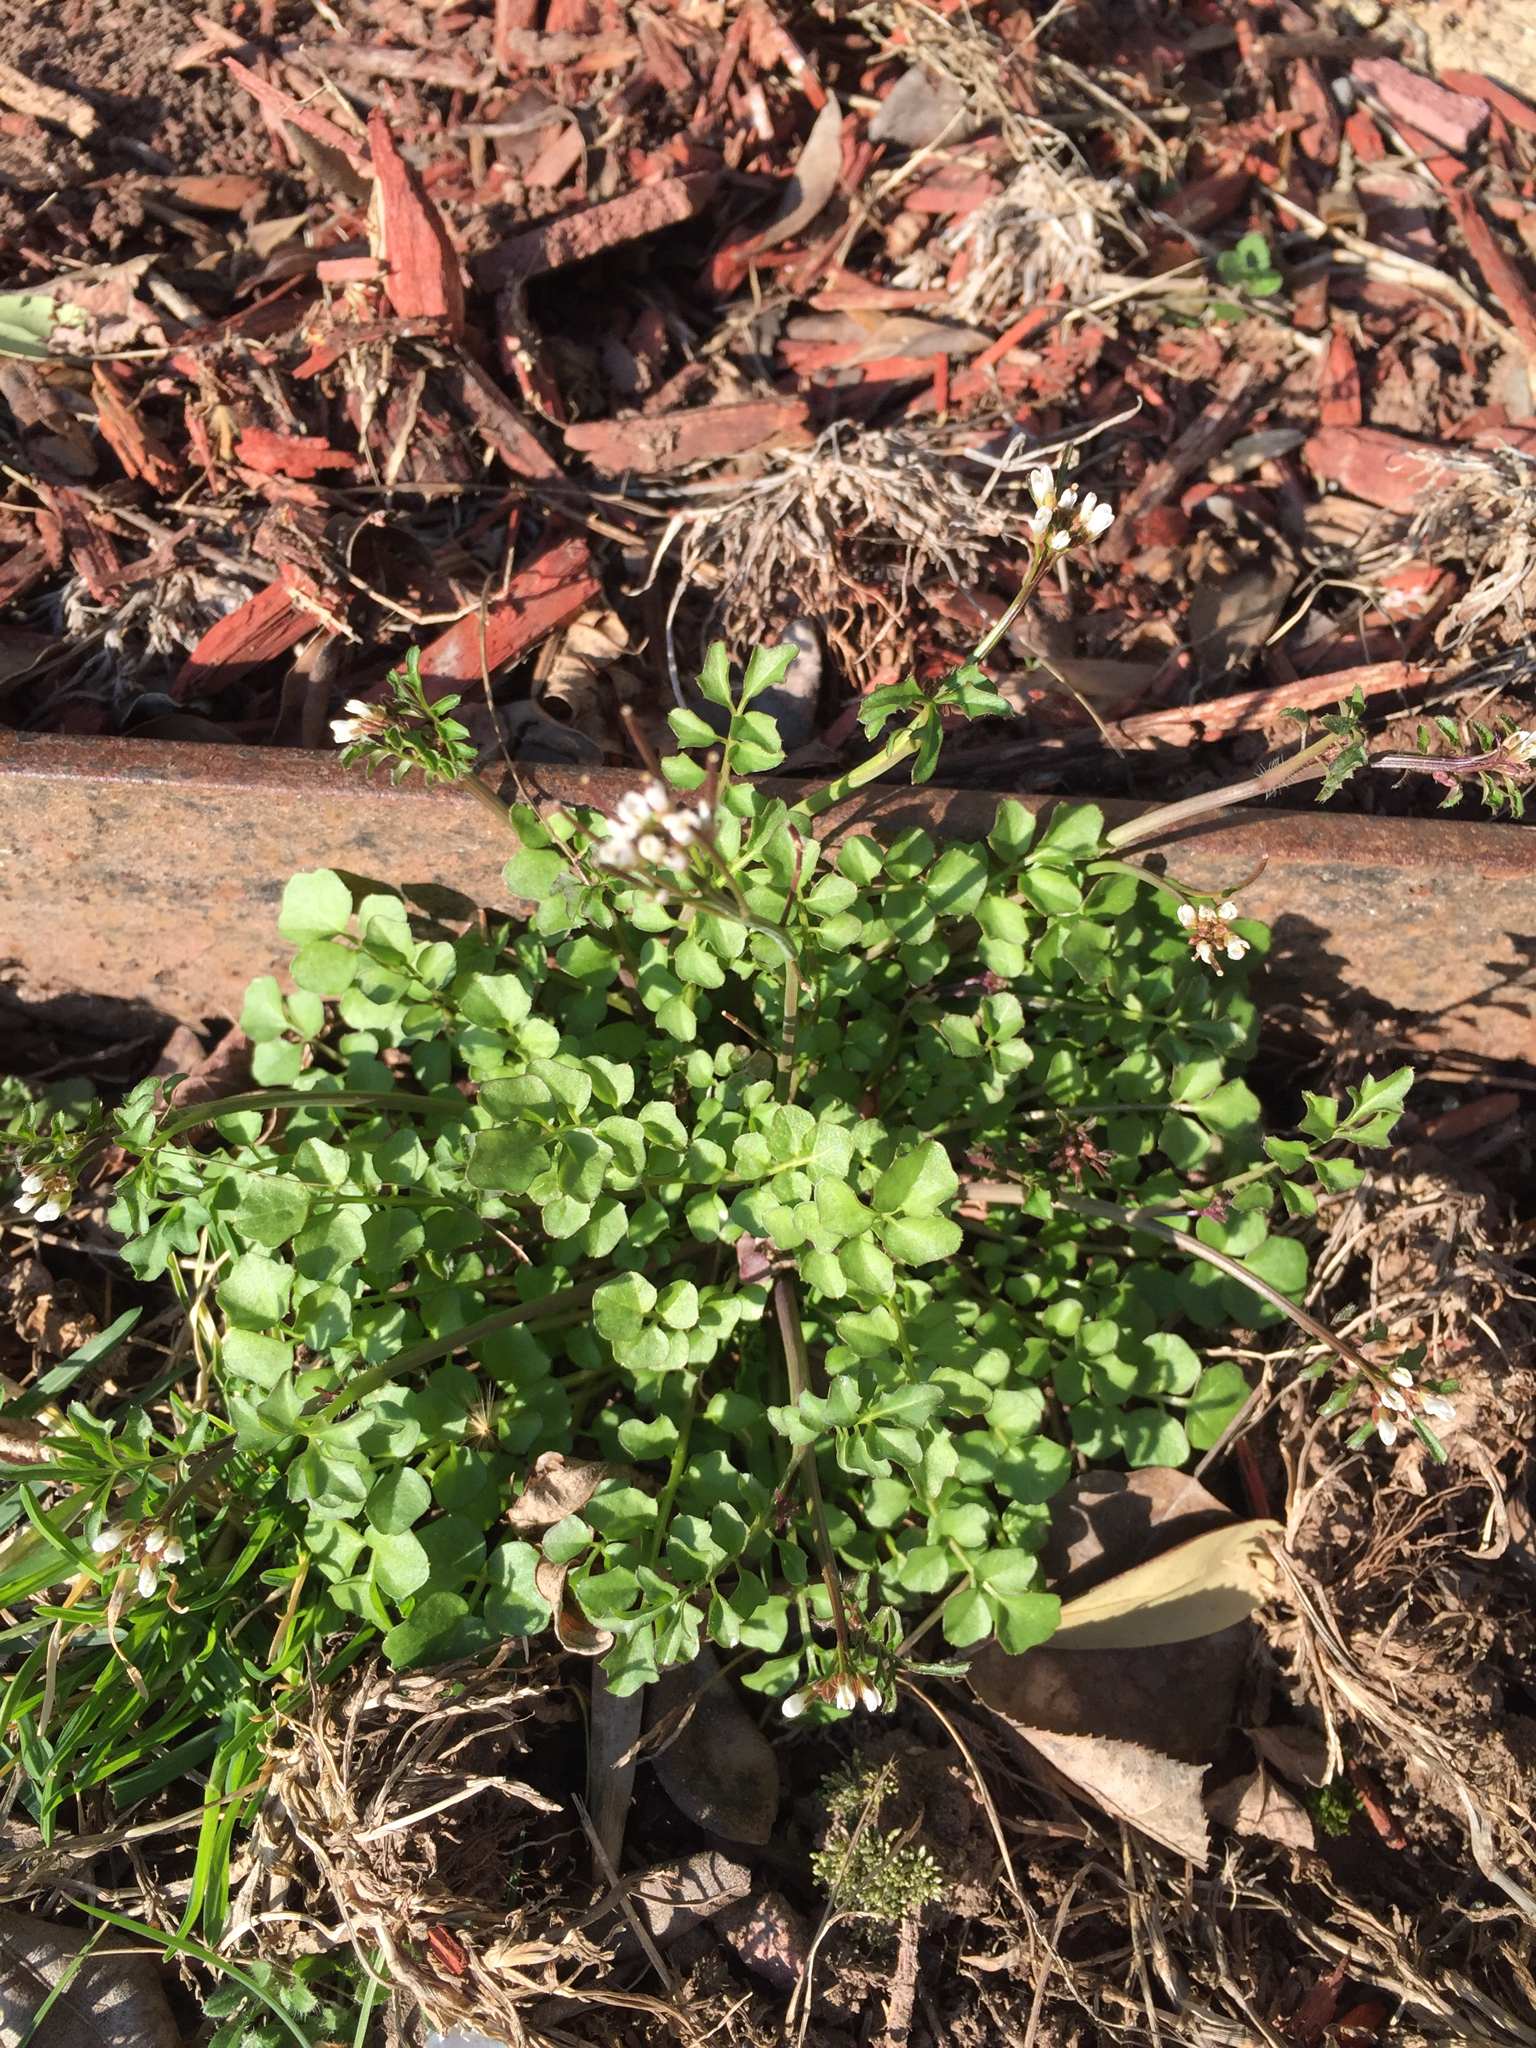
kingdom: Plantae
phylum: Tracheophyta
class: Magnoliopsida
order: Brassicales
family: Brassicaceae
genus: Cardamine
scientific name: Cardamine hirsuta
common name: Hairy bittercress
